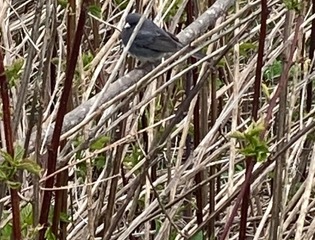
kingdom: Animalia
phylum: Chordata
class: Aves
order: Passeriformes
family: Passerellidae
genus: Junco
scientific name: Junco hyemalis
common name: Dark-eyed junco
